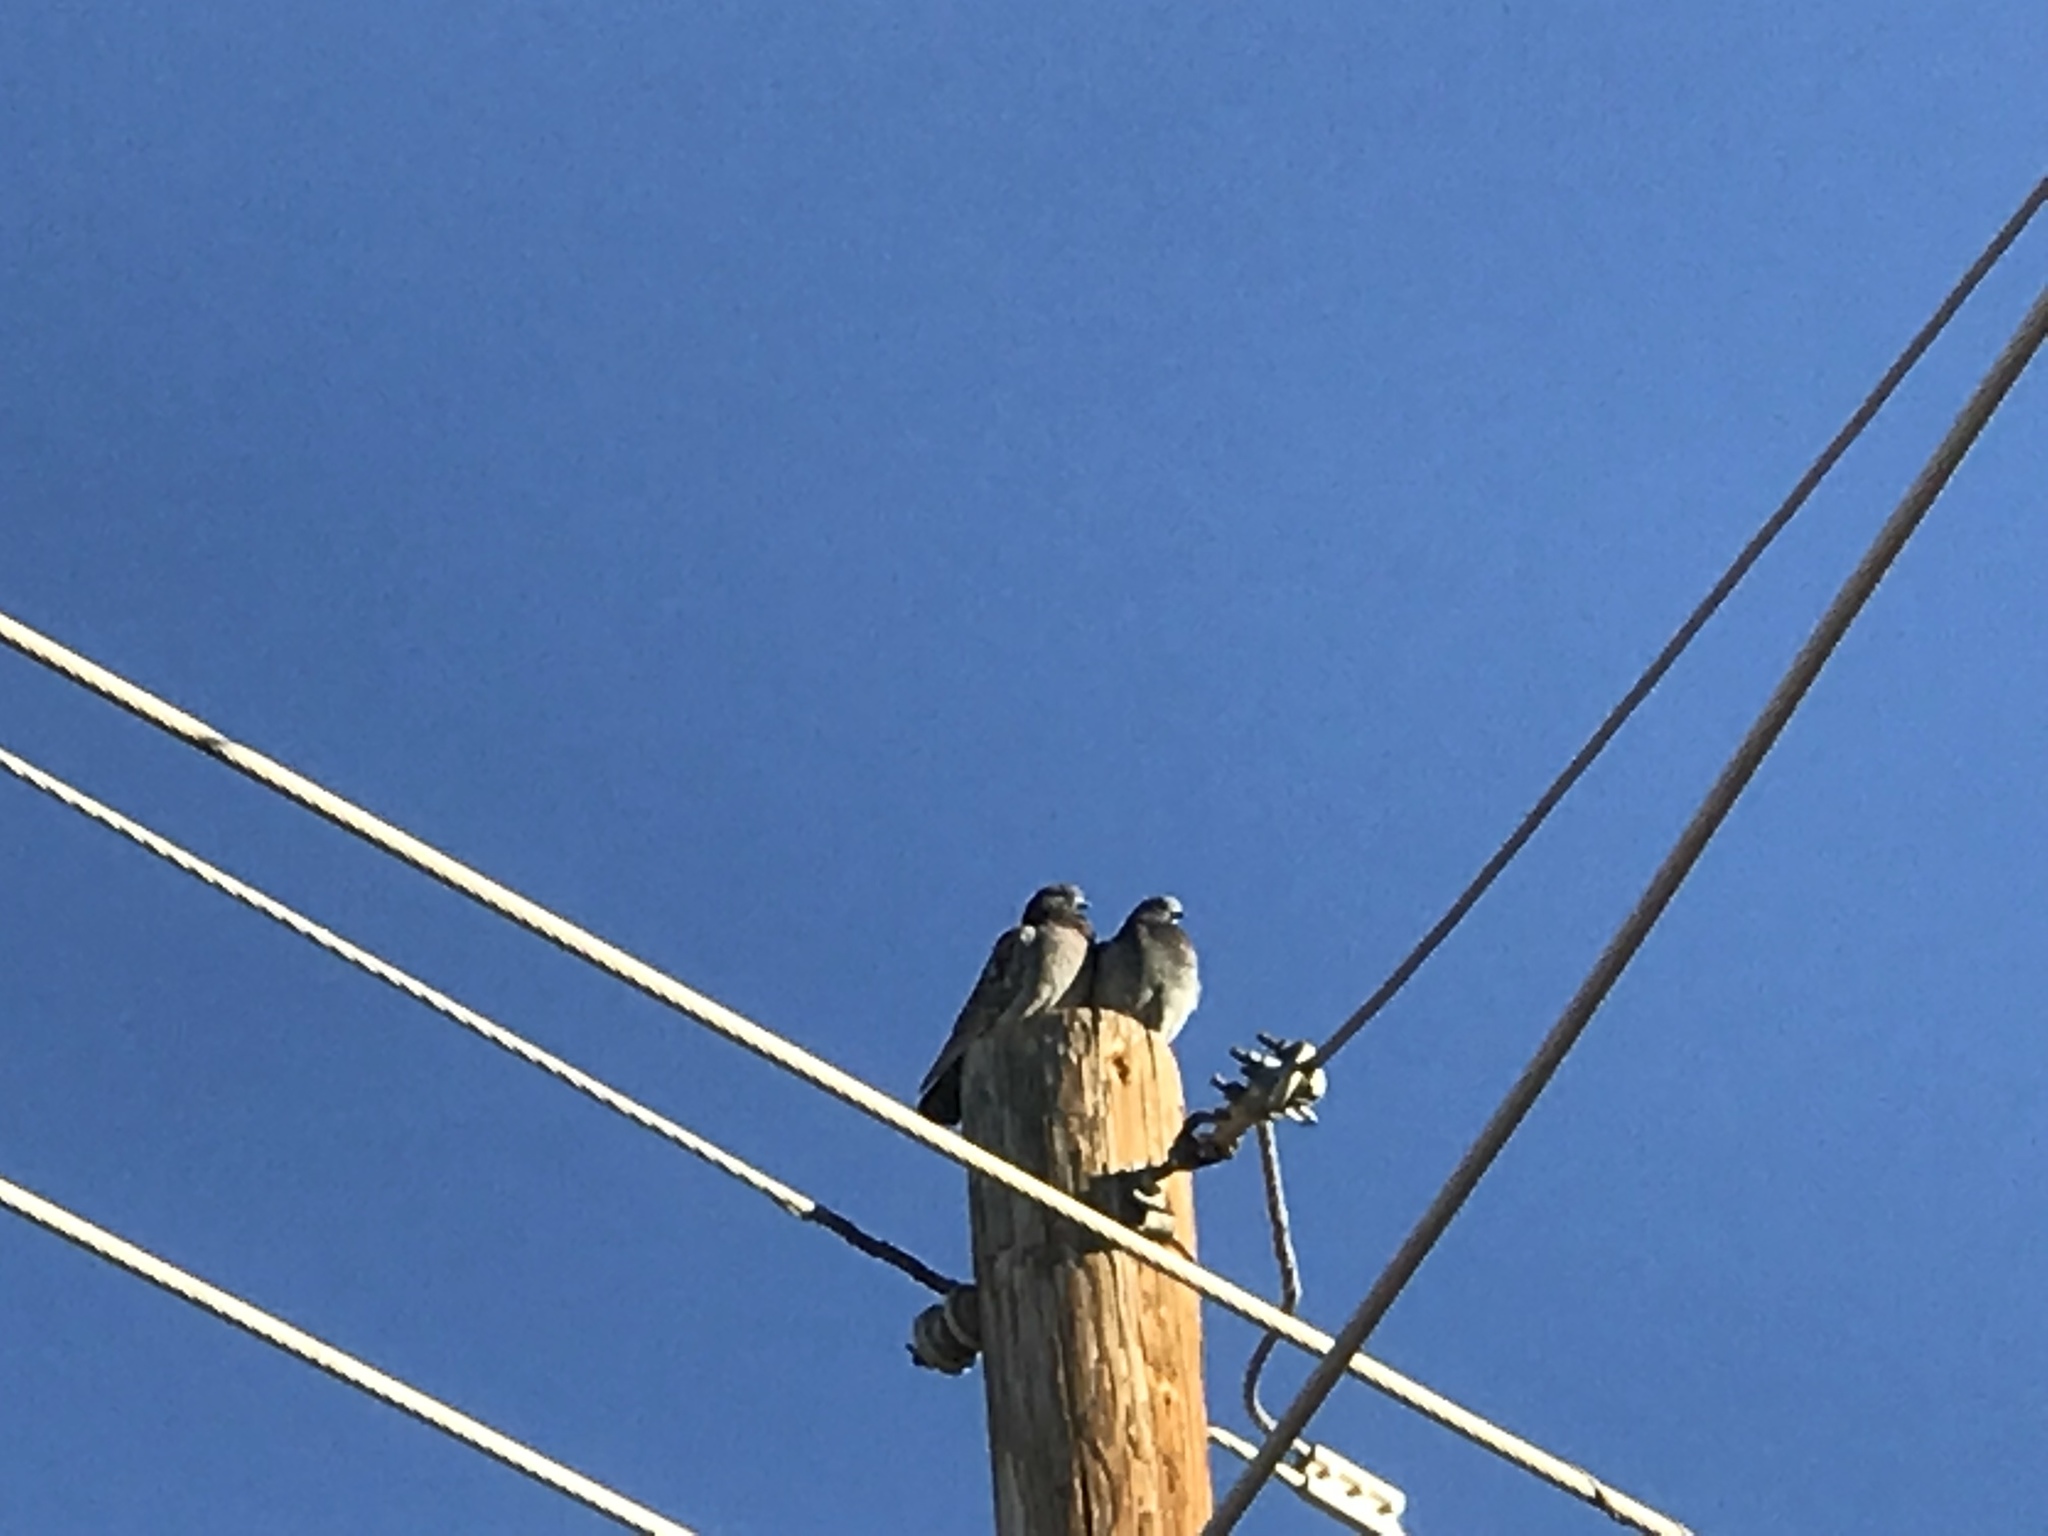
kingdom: Animalia
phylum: Chordata
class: Aves
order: Columbiformes
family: Columbidae
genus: Columba
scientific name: Columba livia
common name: Rock pigeon
